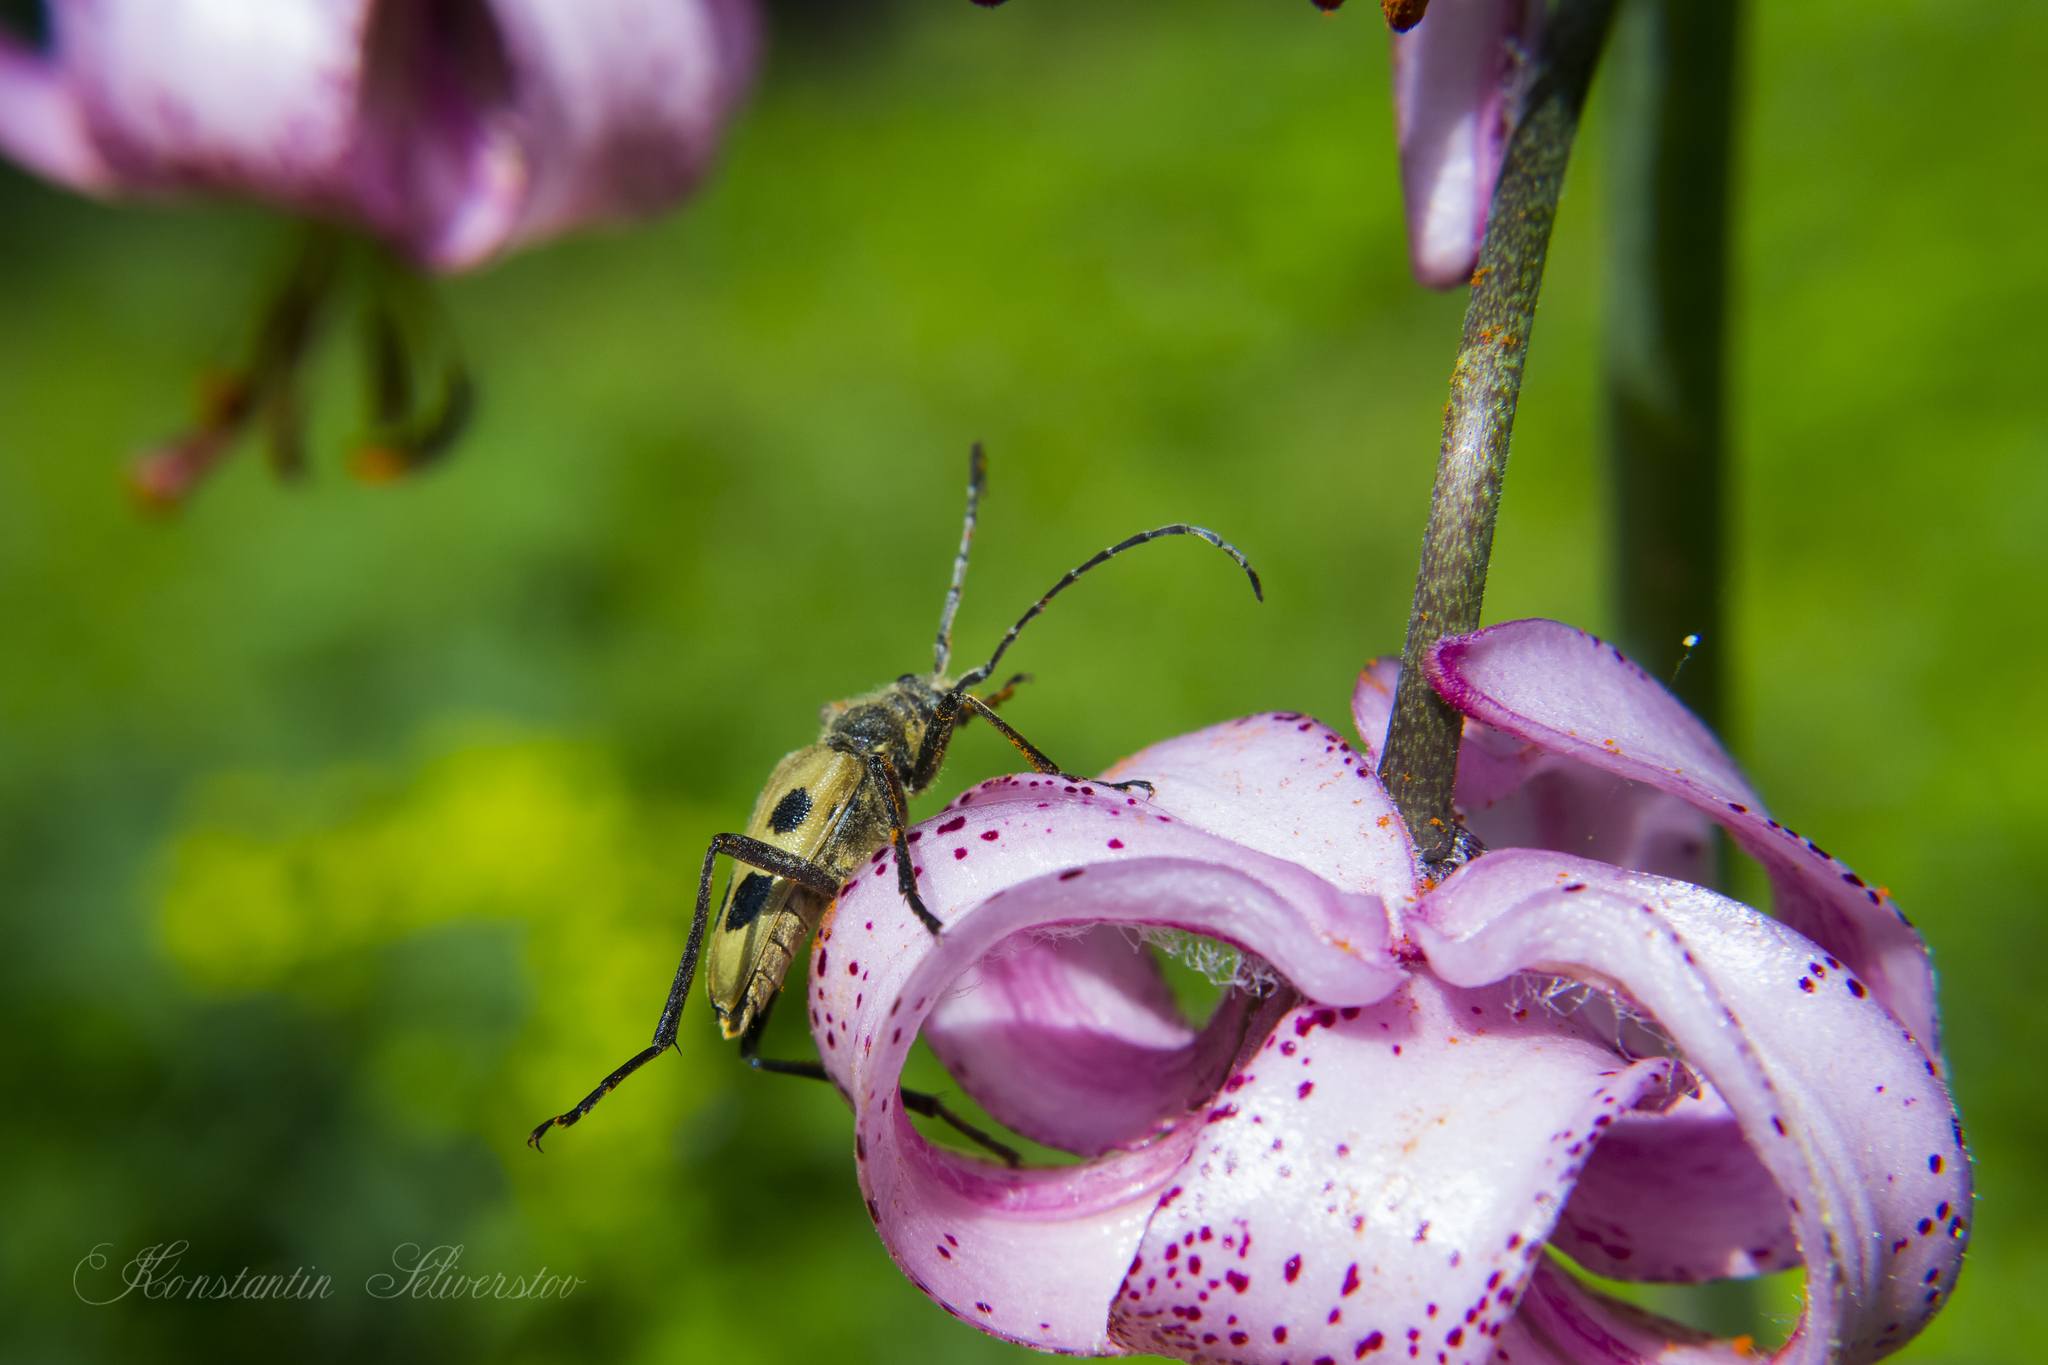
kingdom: Animalia
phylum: Arthropoda
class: Insecta
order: Coleoptera
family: Cerambycidae
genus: Pachyta
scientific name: Pachyta quadrimaculata
